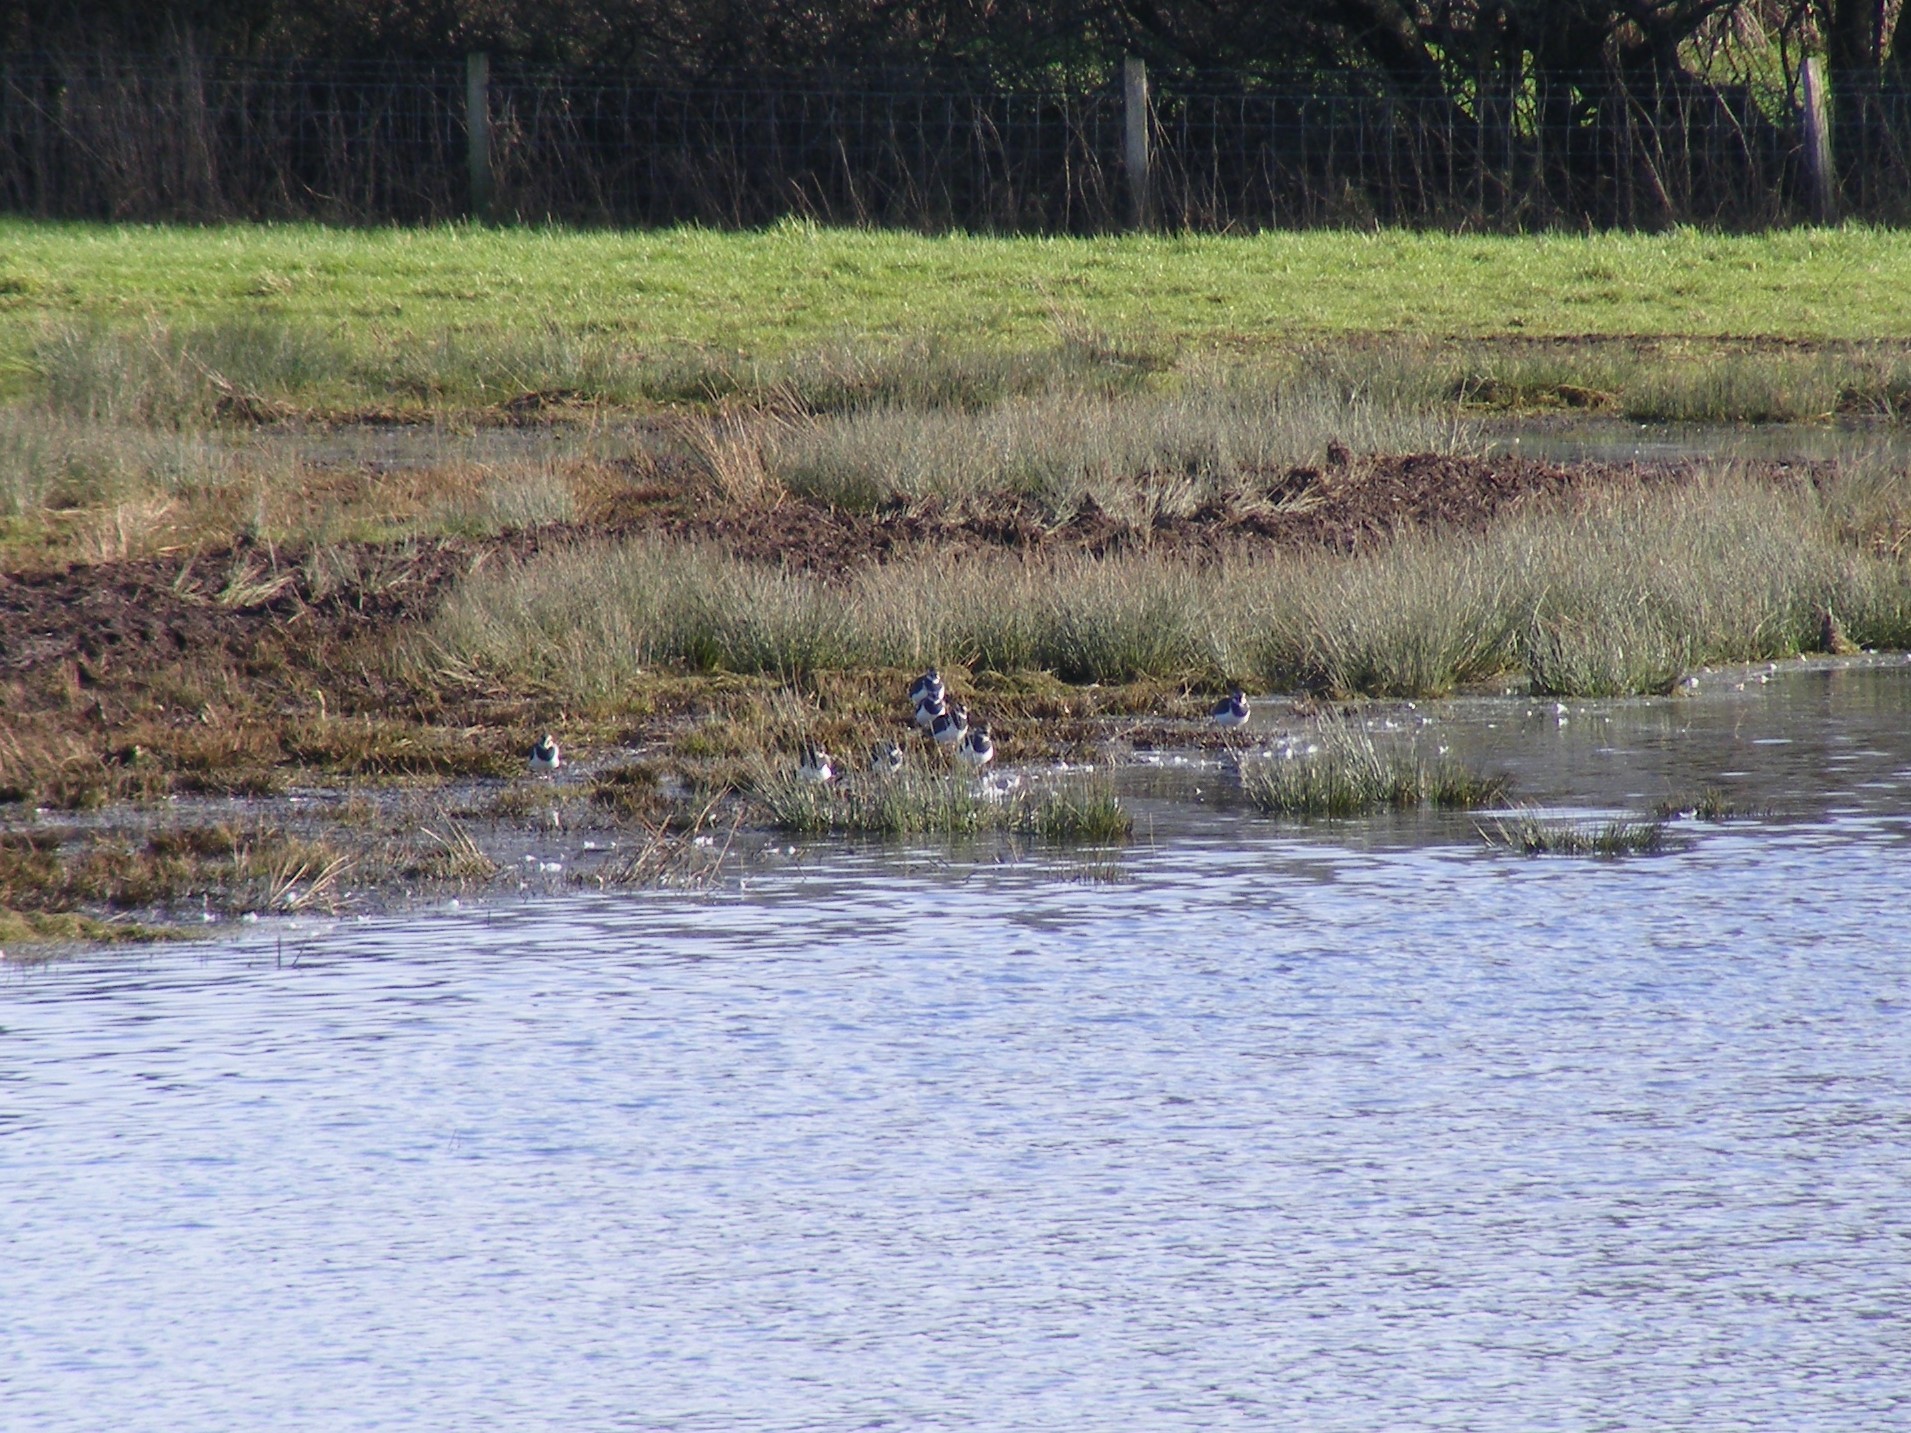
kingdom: Animalia
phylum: Chordata
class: Aves
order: Charadriiformes
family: Charadriidae
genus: Vanellus
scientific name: Vanellus vanellus
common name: Northern lapwing
